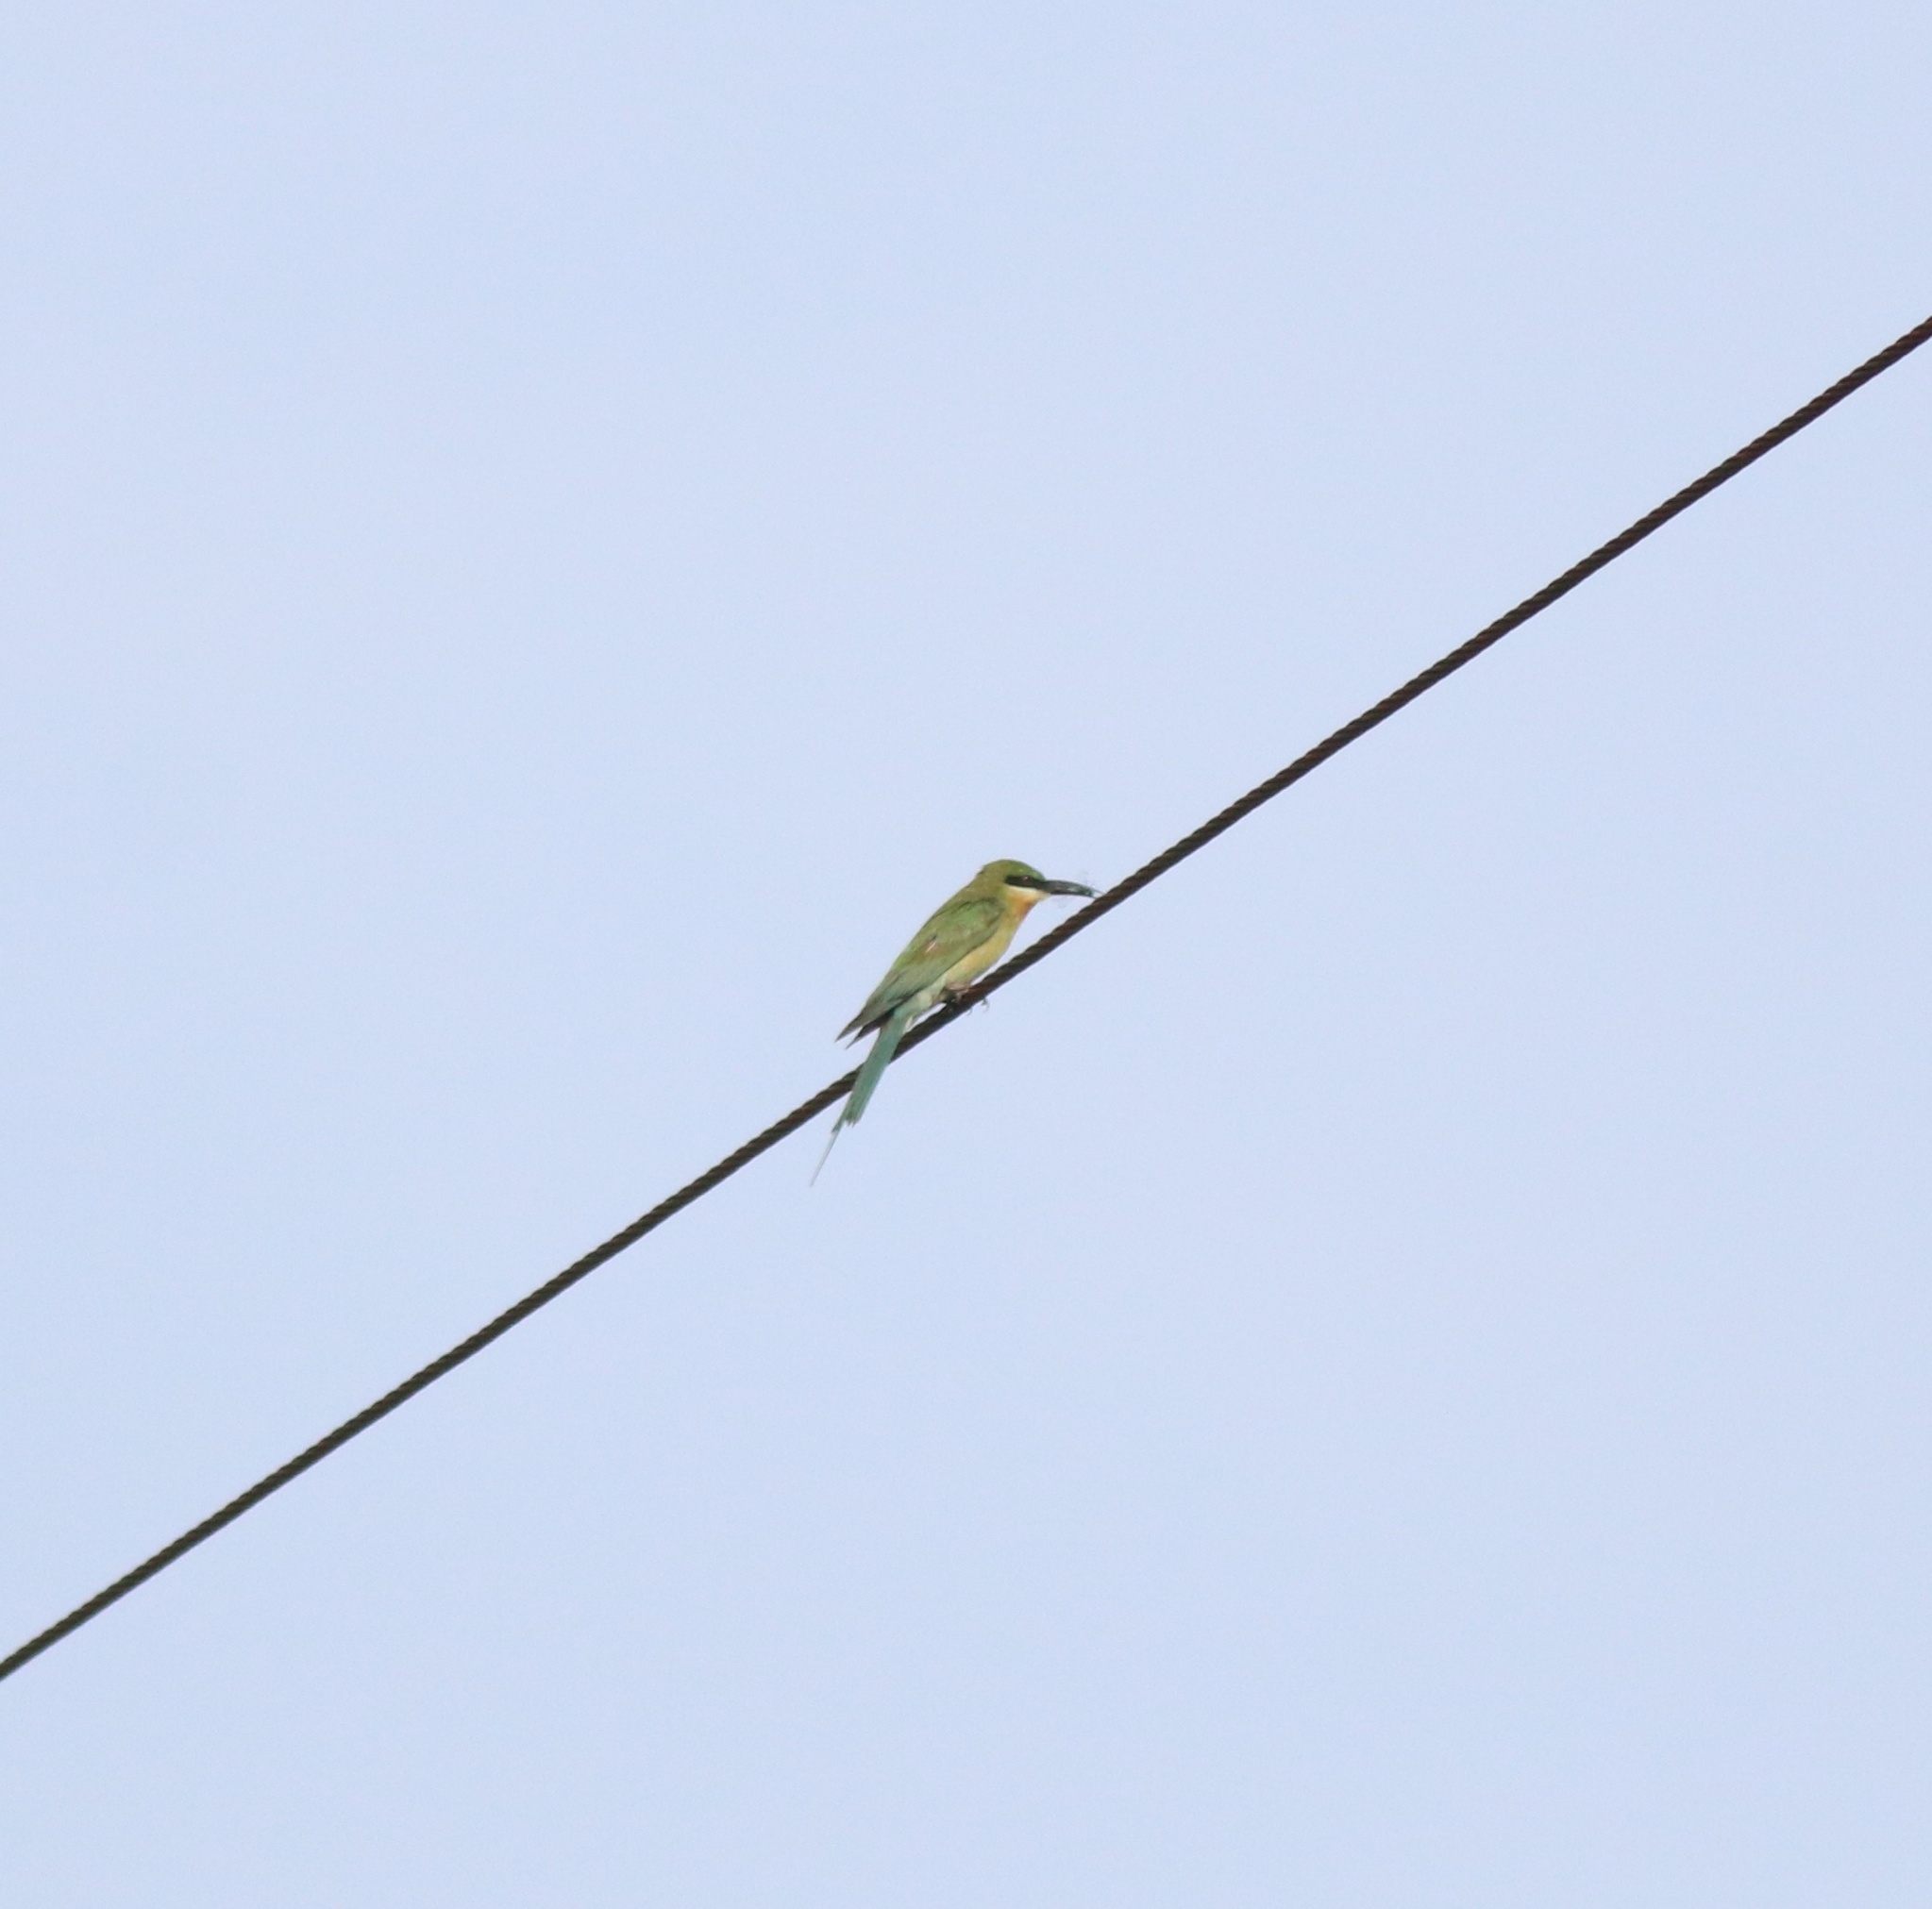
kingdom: Animalia
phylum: Chordata
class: Aves
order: Coraciiformes
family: Meropidae
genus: Merops
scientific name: Merops philippinus
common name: Blue-tailed bee-eater
